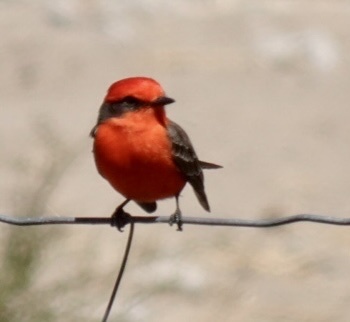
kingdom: Animalia
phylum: Chordata
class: Aves
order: Passeriformes
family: Tyrannidae
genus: Pyrocephalus
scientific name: Pyrocephalus rubinus
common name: Vermilion flycatcher
